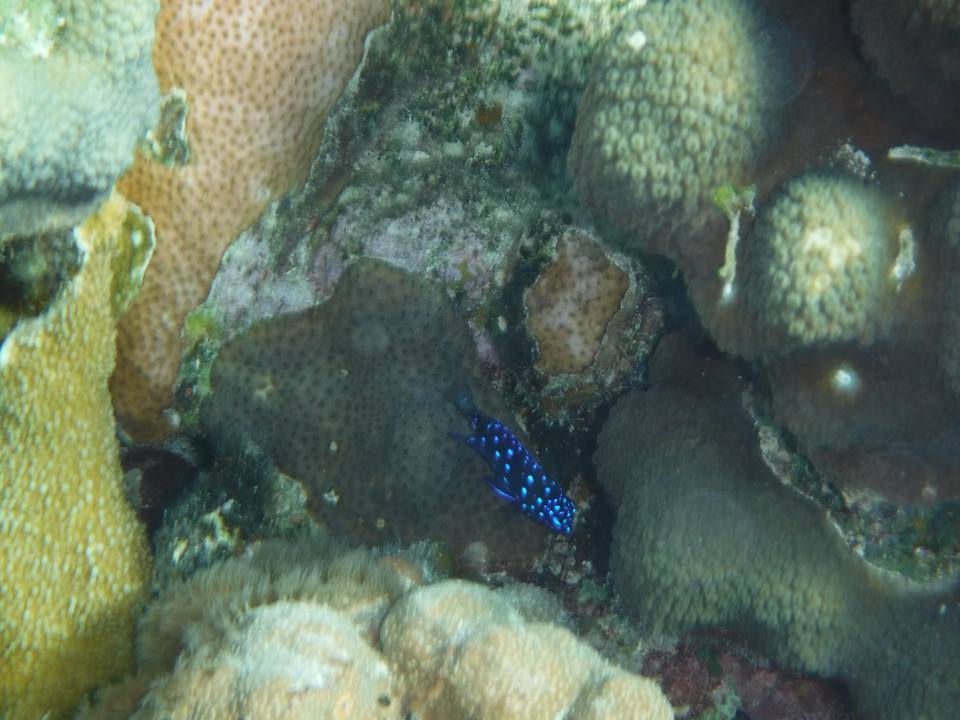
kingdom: Animalia
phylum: Chordata
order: Perciformes
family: Pomacentridae
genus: Microspathodon
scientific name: Microspathodon chrysurus
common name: Yellowtail damselfish
